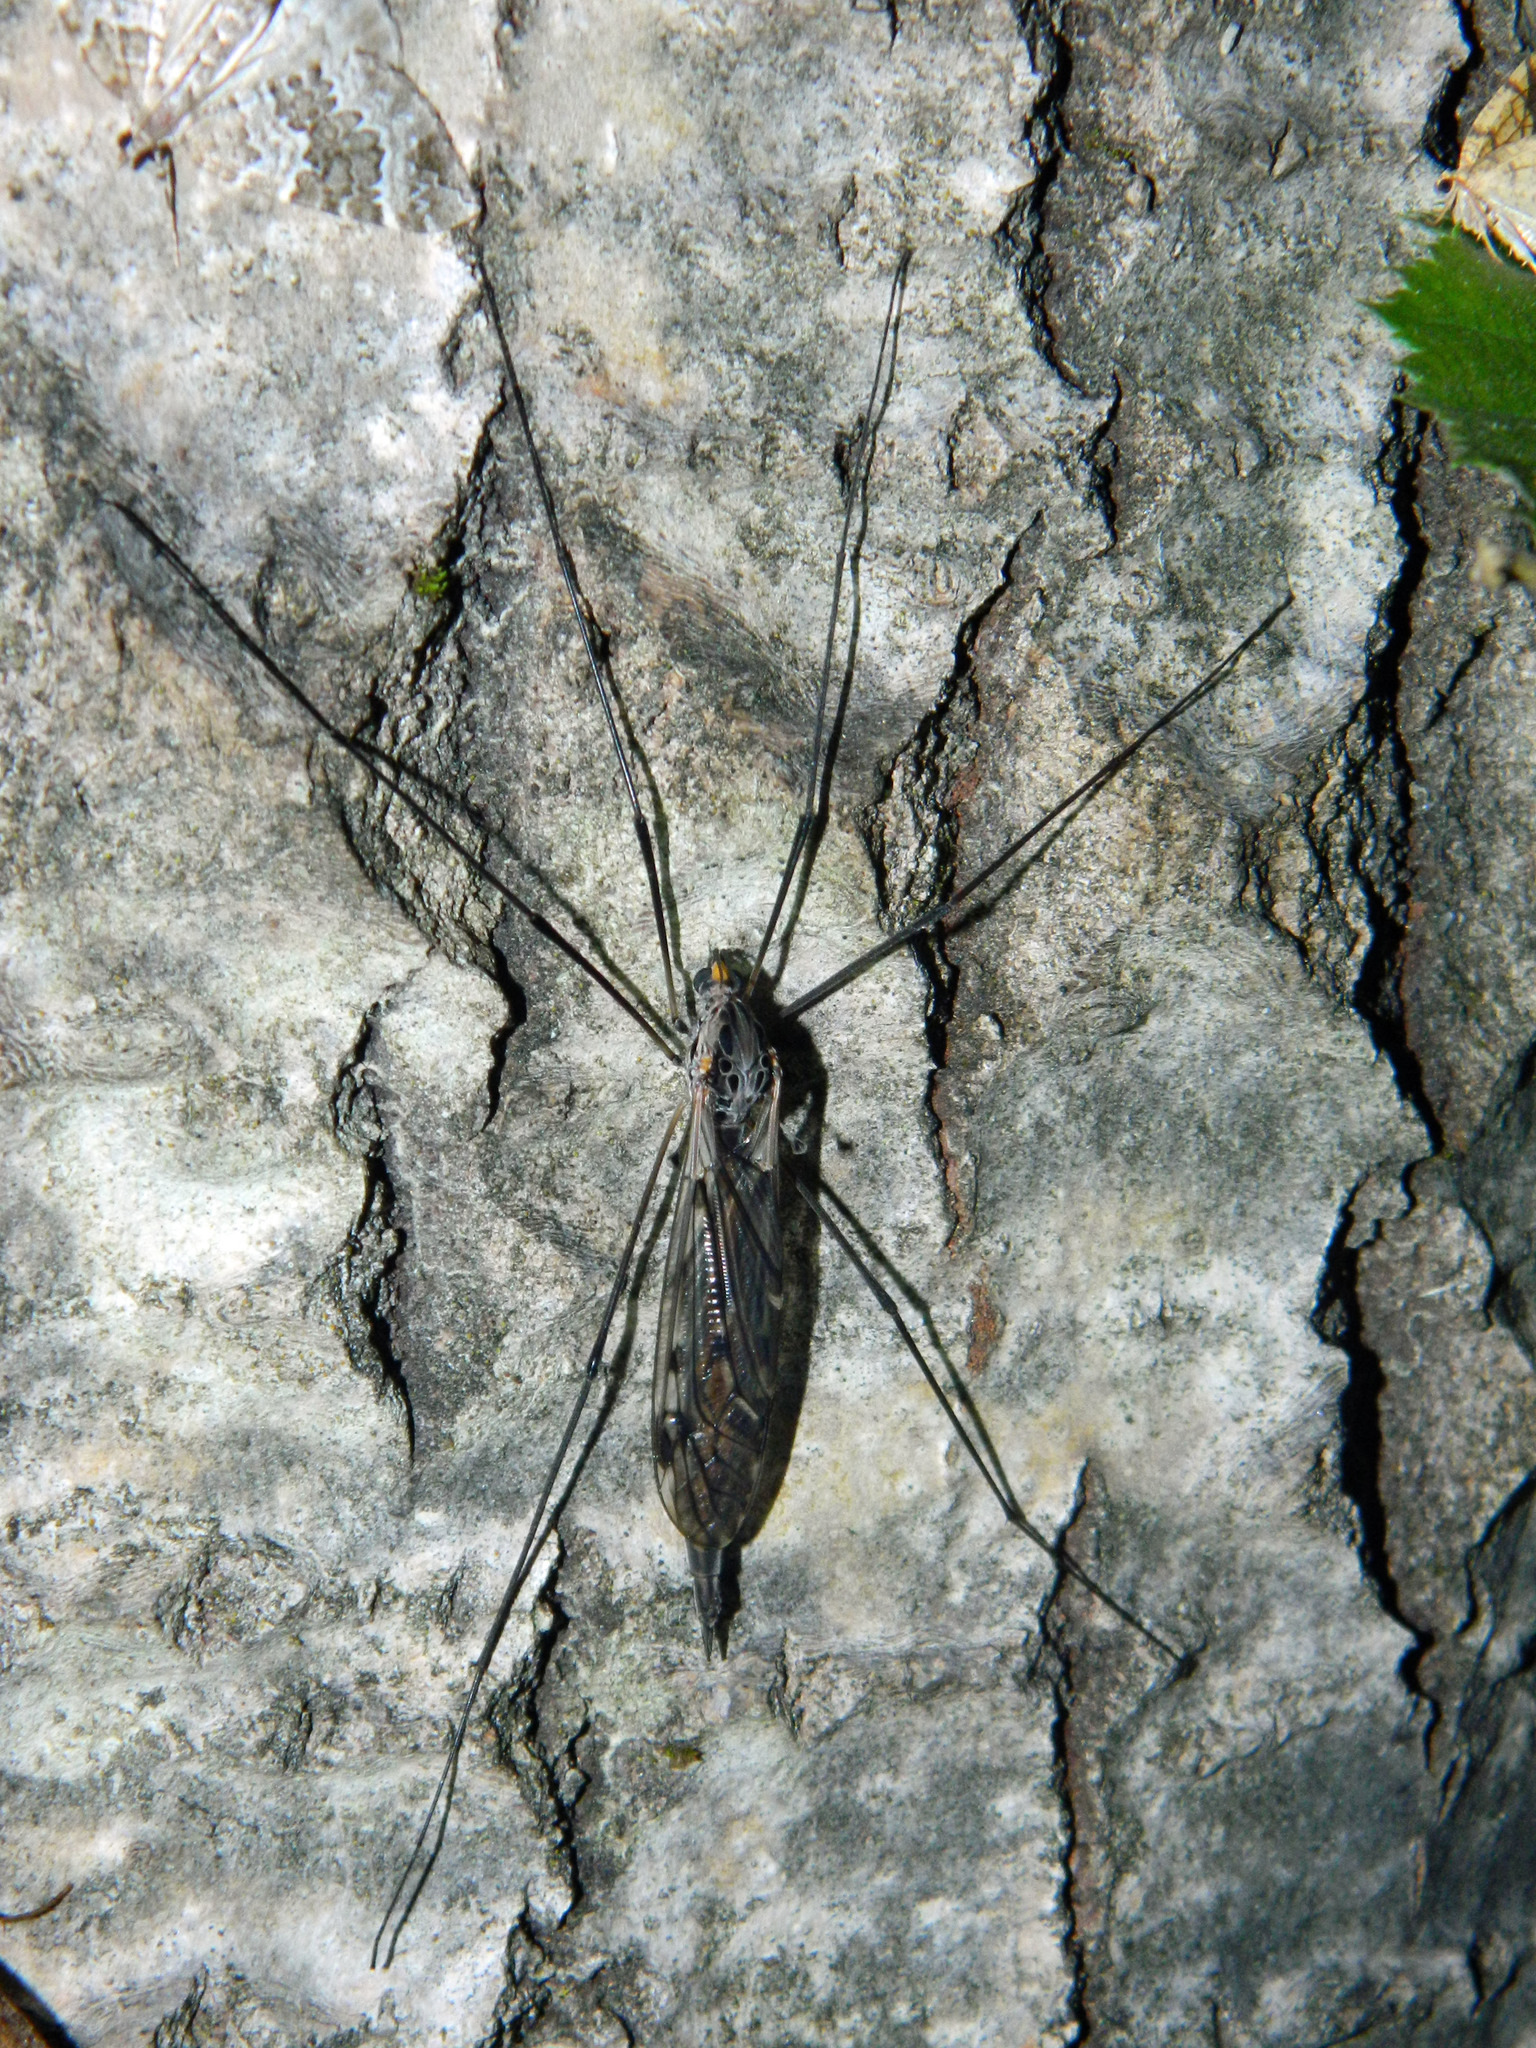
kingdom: Animalia
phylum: Arthropoda
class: Insecta
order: Diptera
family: Tipulidae
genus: Tipula
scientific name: Tipula metacomet
